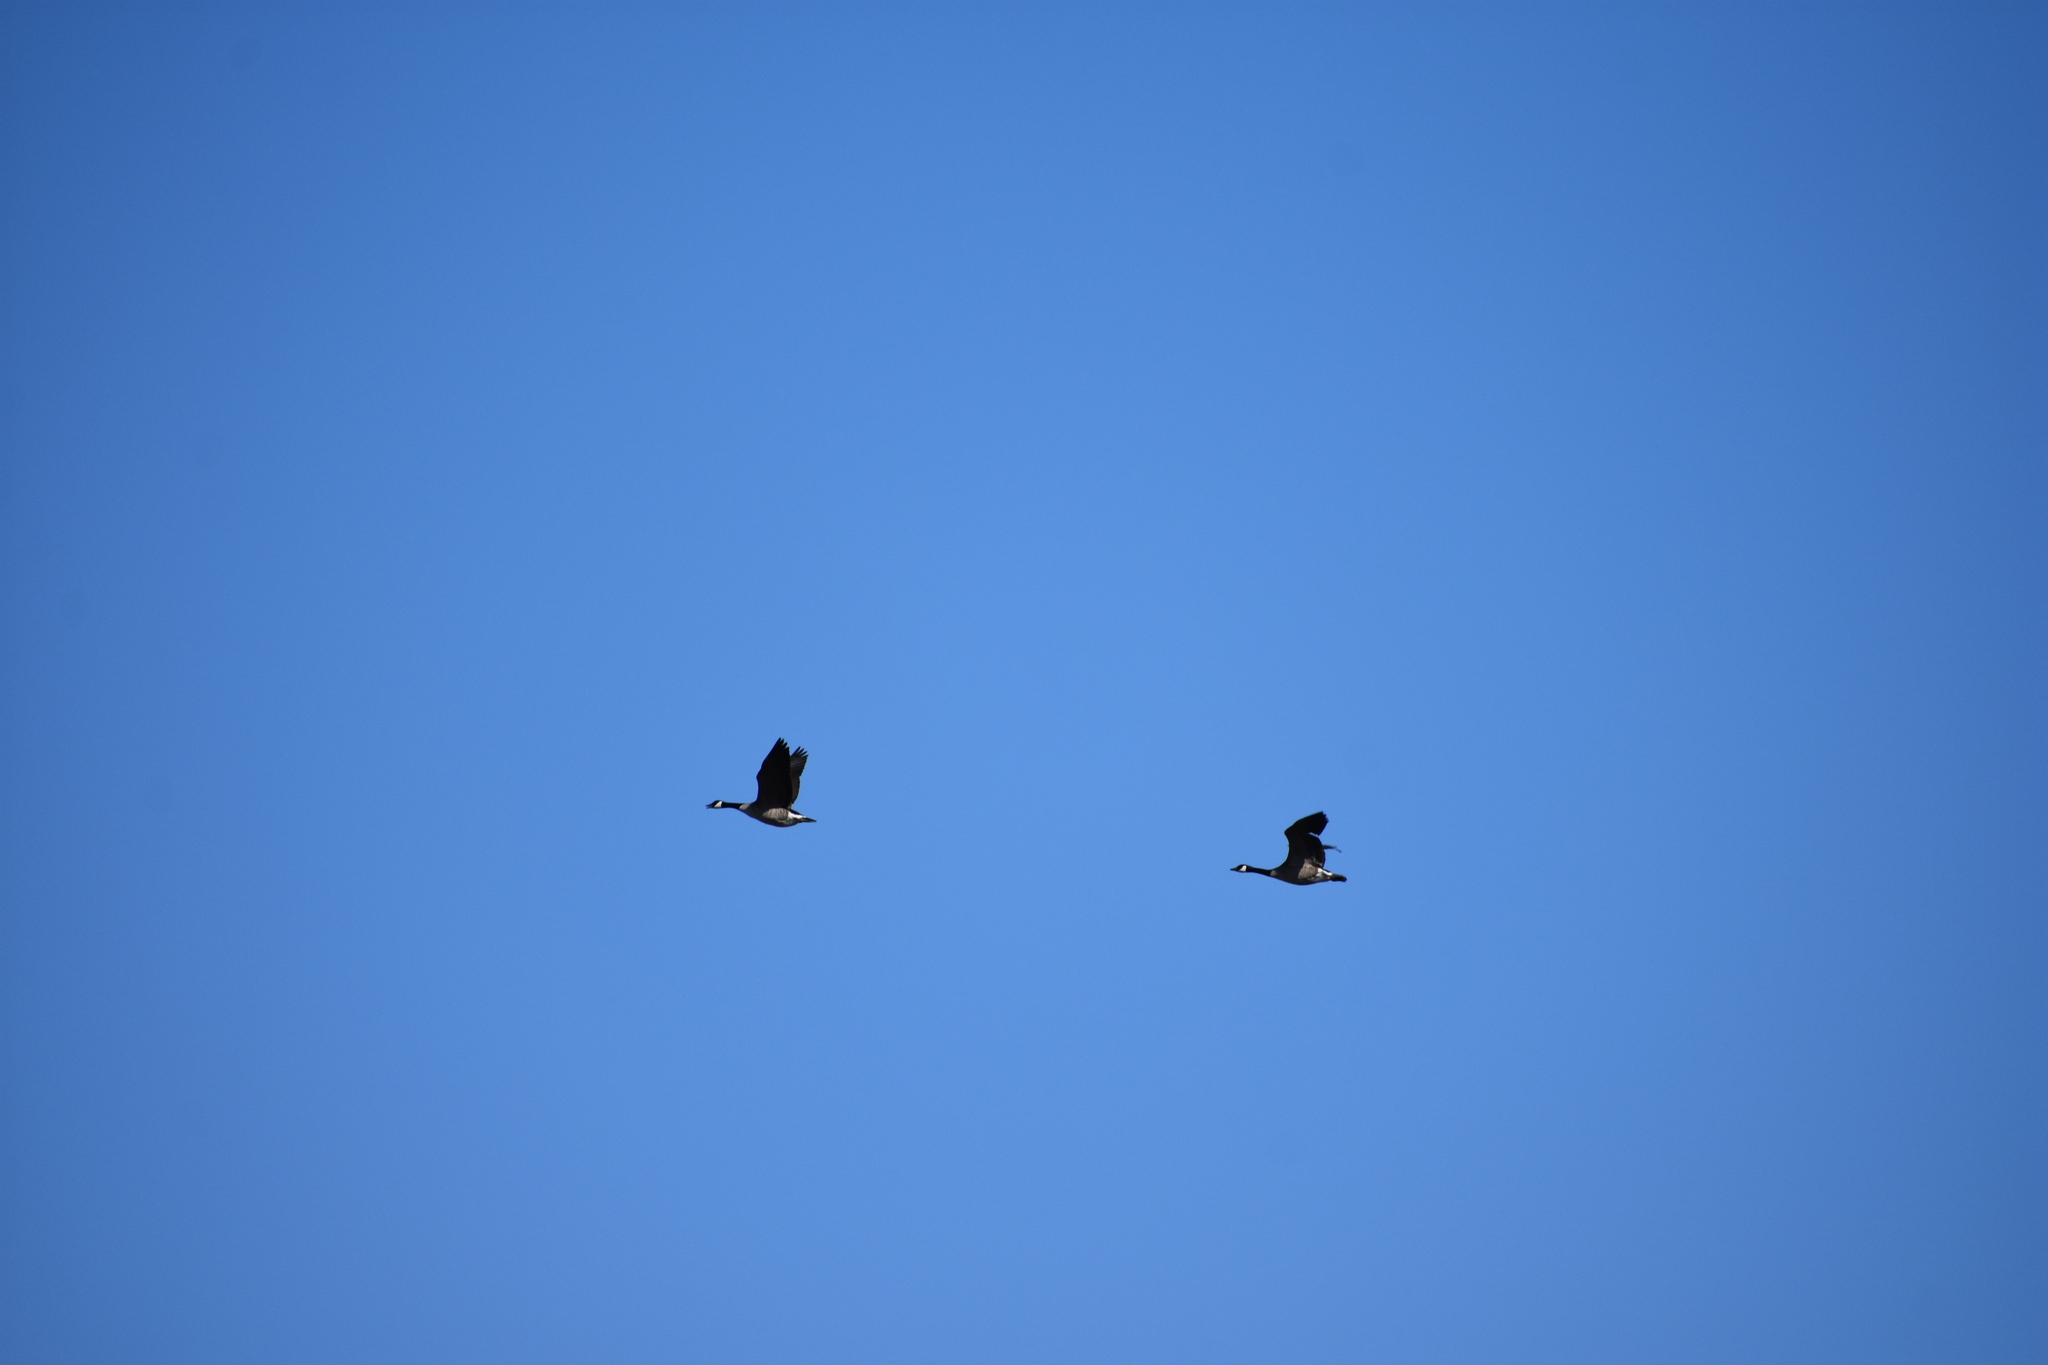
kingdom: Animalia
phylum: Chordata
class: Aves
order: Anseriformes
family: Anatidae
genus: Branta
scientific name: Branta canadensis
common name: Canada goose
